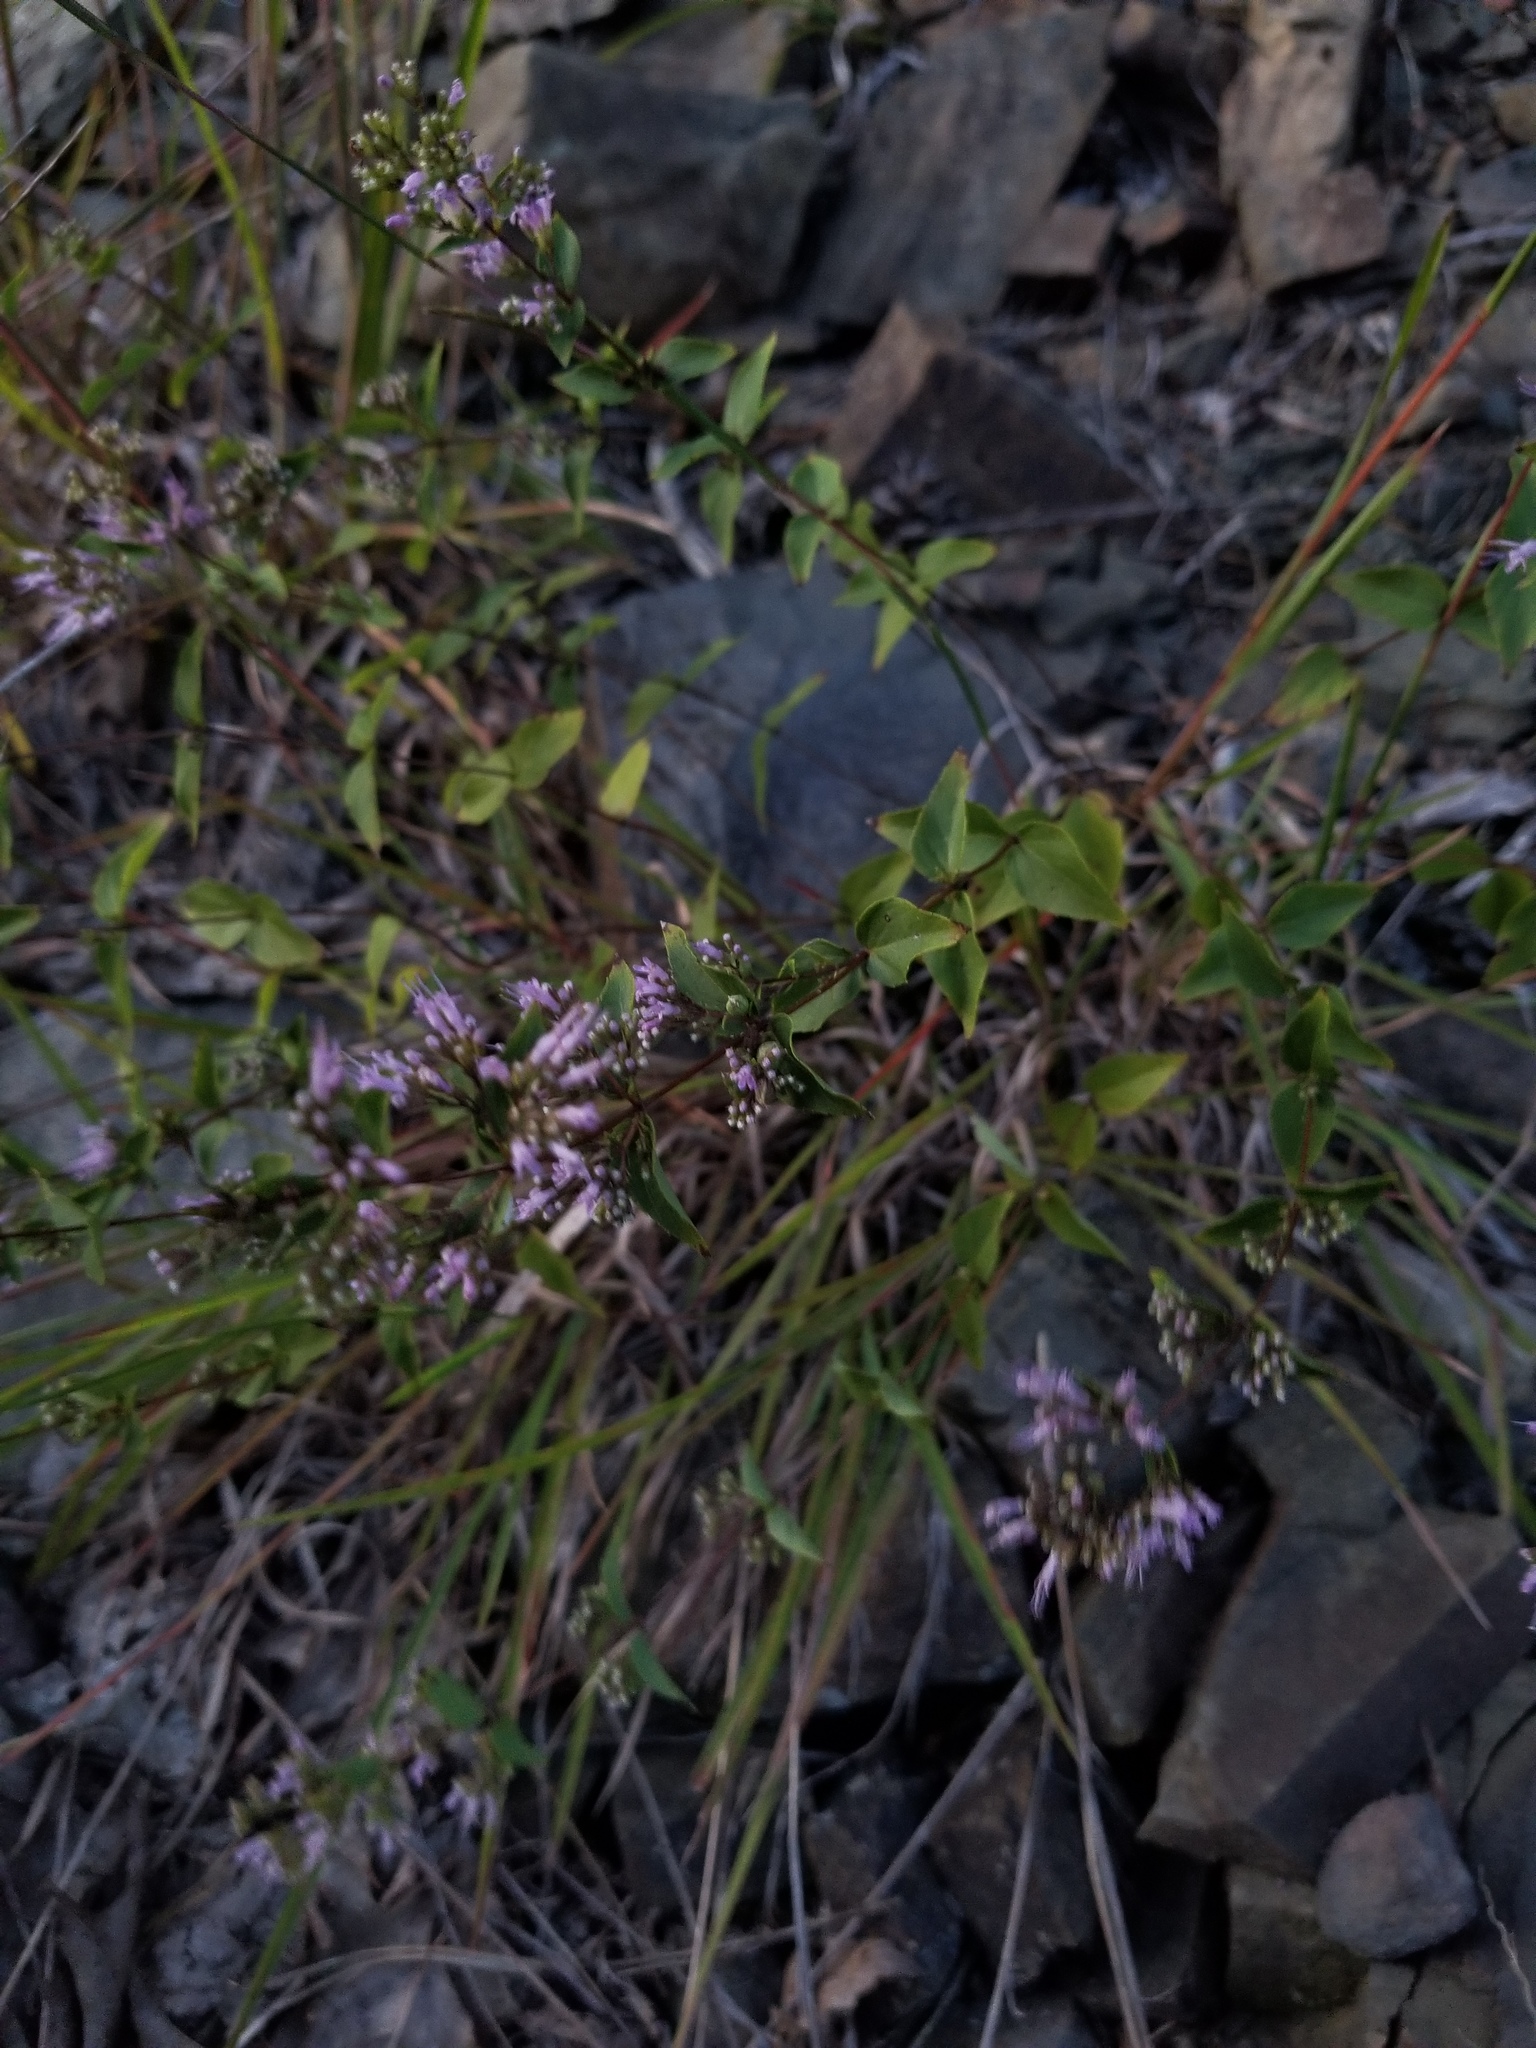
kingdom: Plantae
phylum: Tracheophyta
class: Magnoliopsida
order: Lamiales
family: Lamiaceae
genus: Cunila
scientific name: Cunila origanoides
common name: American dittany
